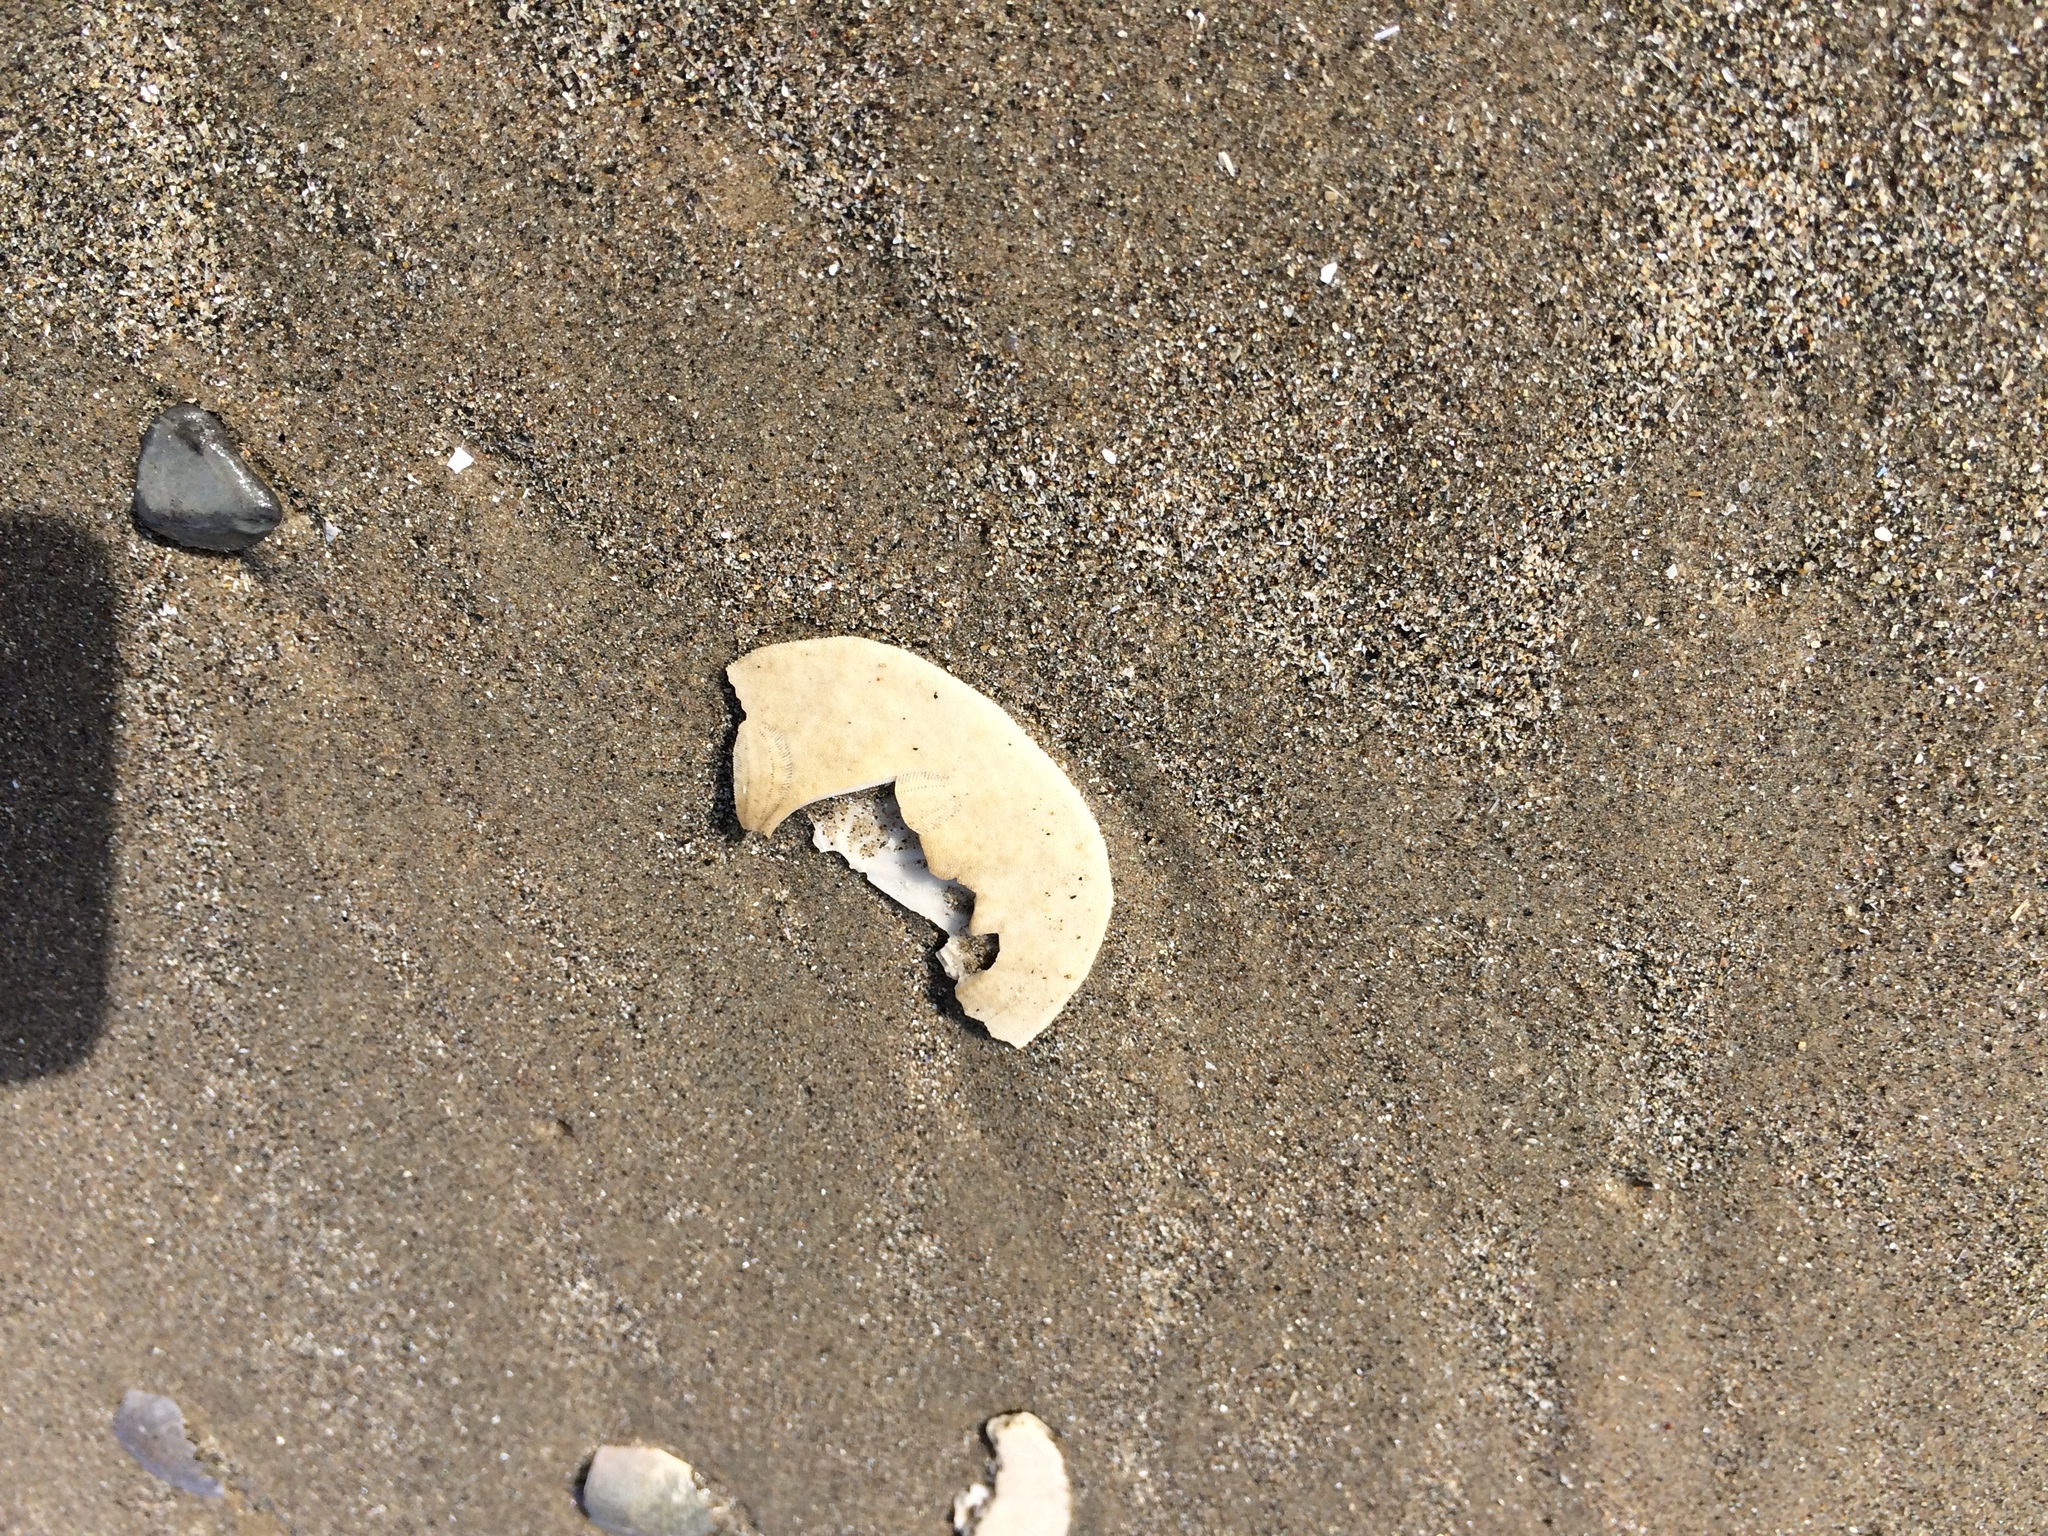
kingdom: Animalia
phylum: Echinodermata
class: Echinoidea
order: Echinolampadacea
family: Dendrasteridae
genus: Dendraster
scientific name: Dendraster excentricus
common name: Eccentric sand dollar sea urchin
